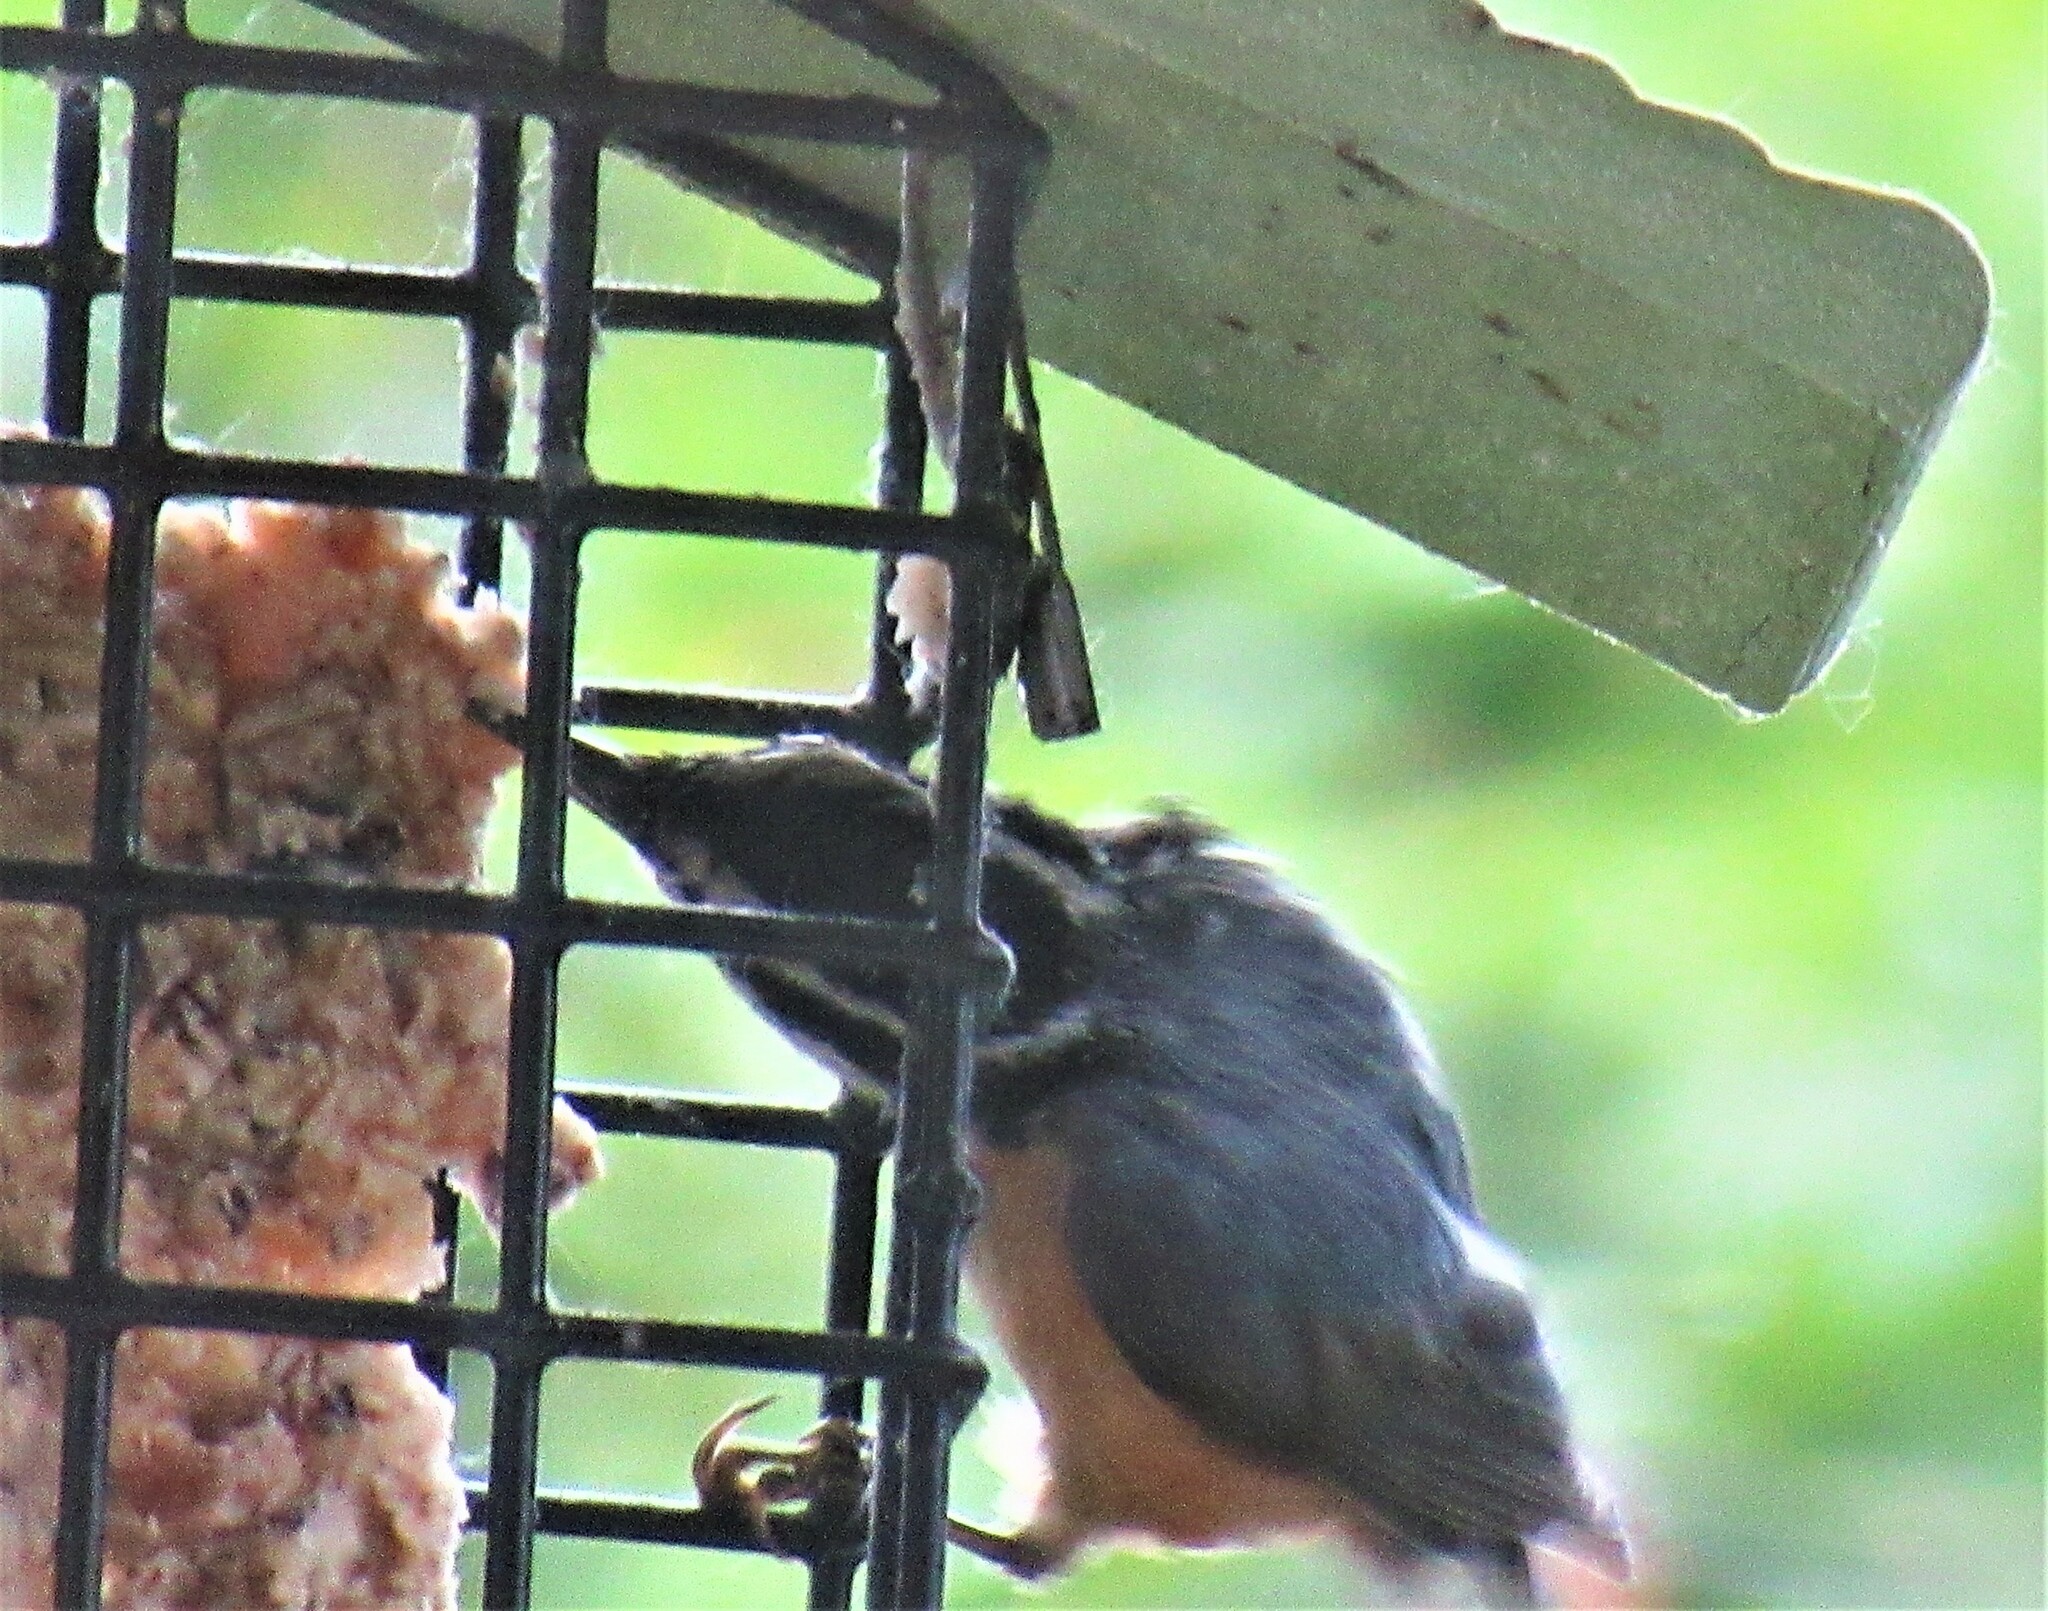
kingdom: Animalia
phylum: Chordata
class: Aves
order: Passeriformes
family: Sittidae
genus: Sitta
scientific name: Sitta canadensis
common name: Red-breasted nuthatch
